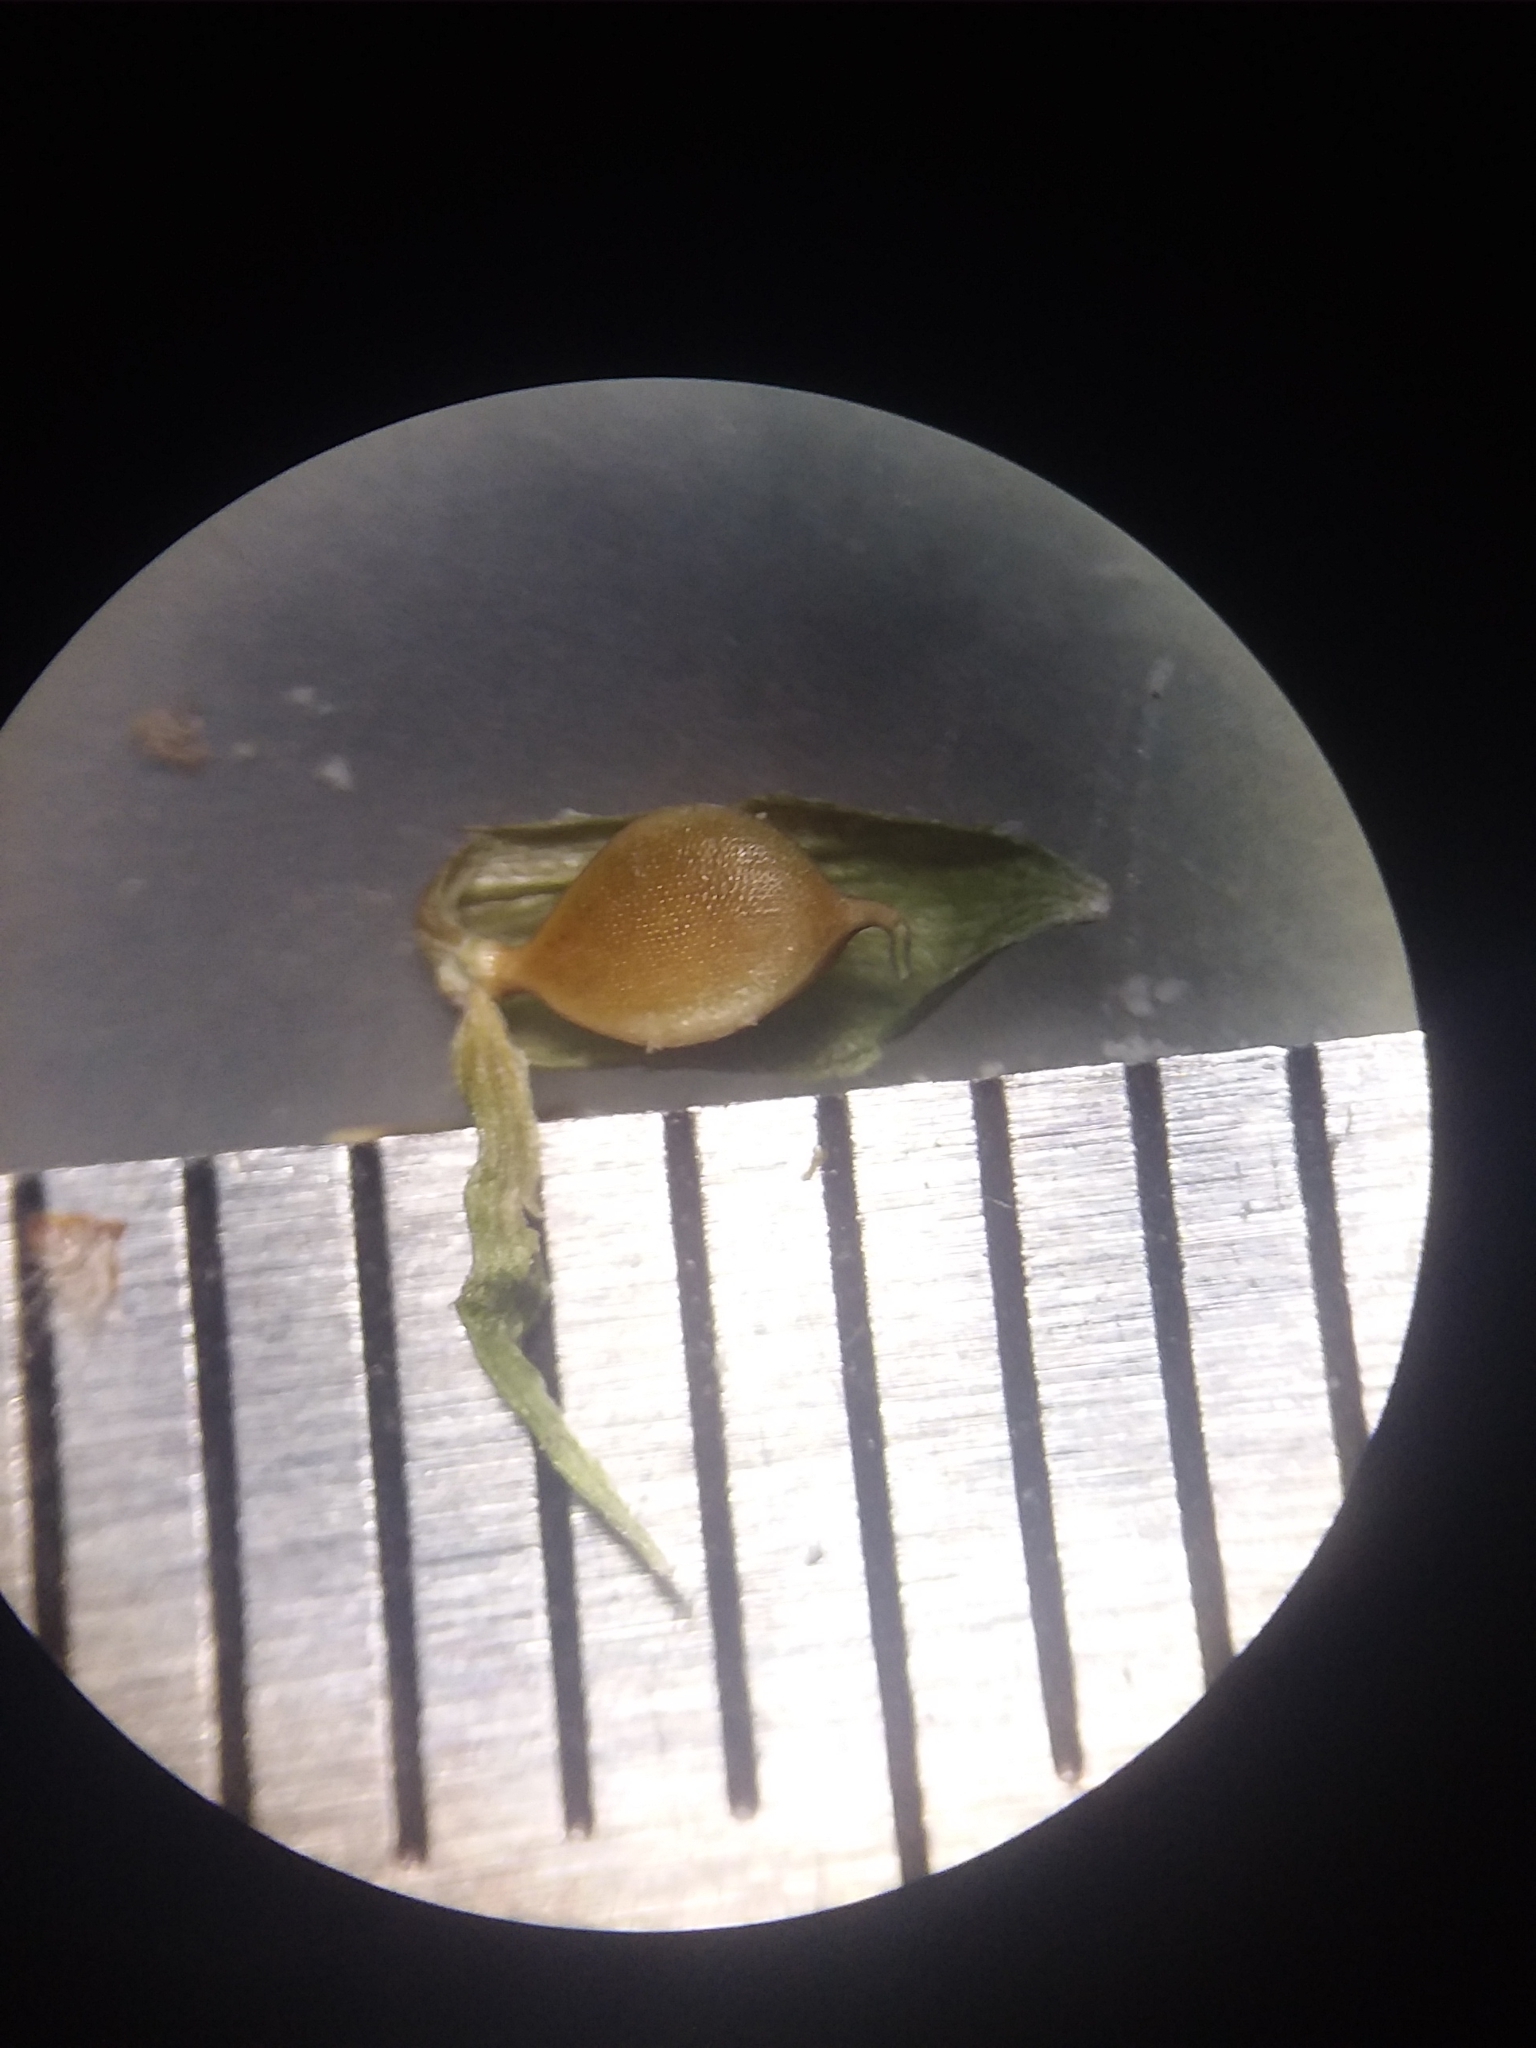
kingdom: Plantae
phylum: Tracheophyta
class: Liliopsida
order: Poales
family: Cyperaceae
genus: Carex
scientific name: Carex pigra
